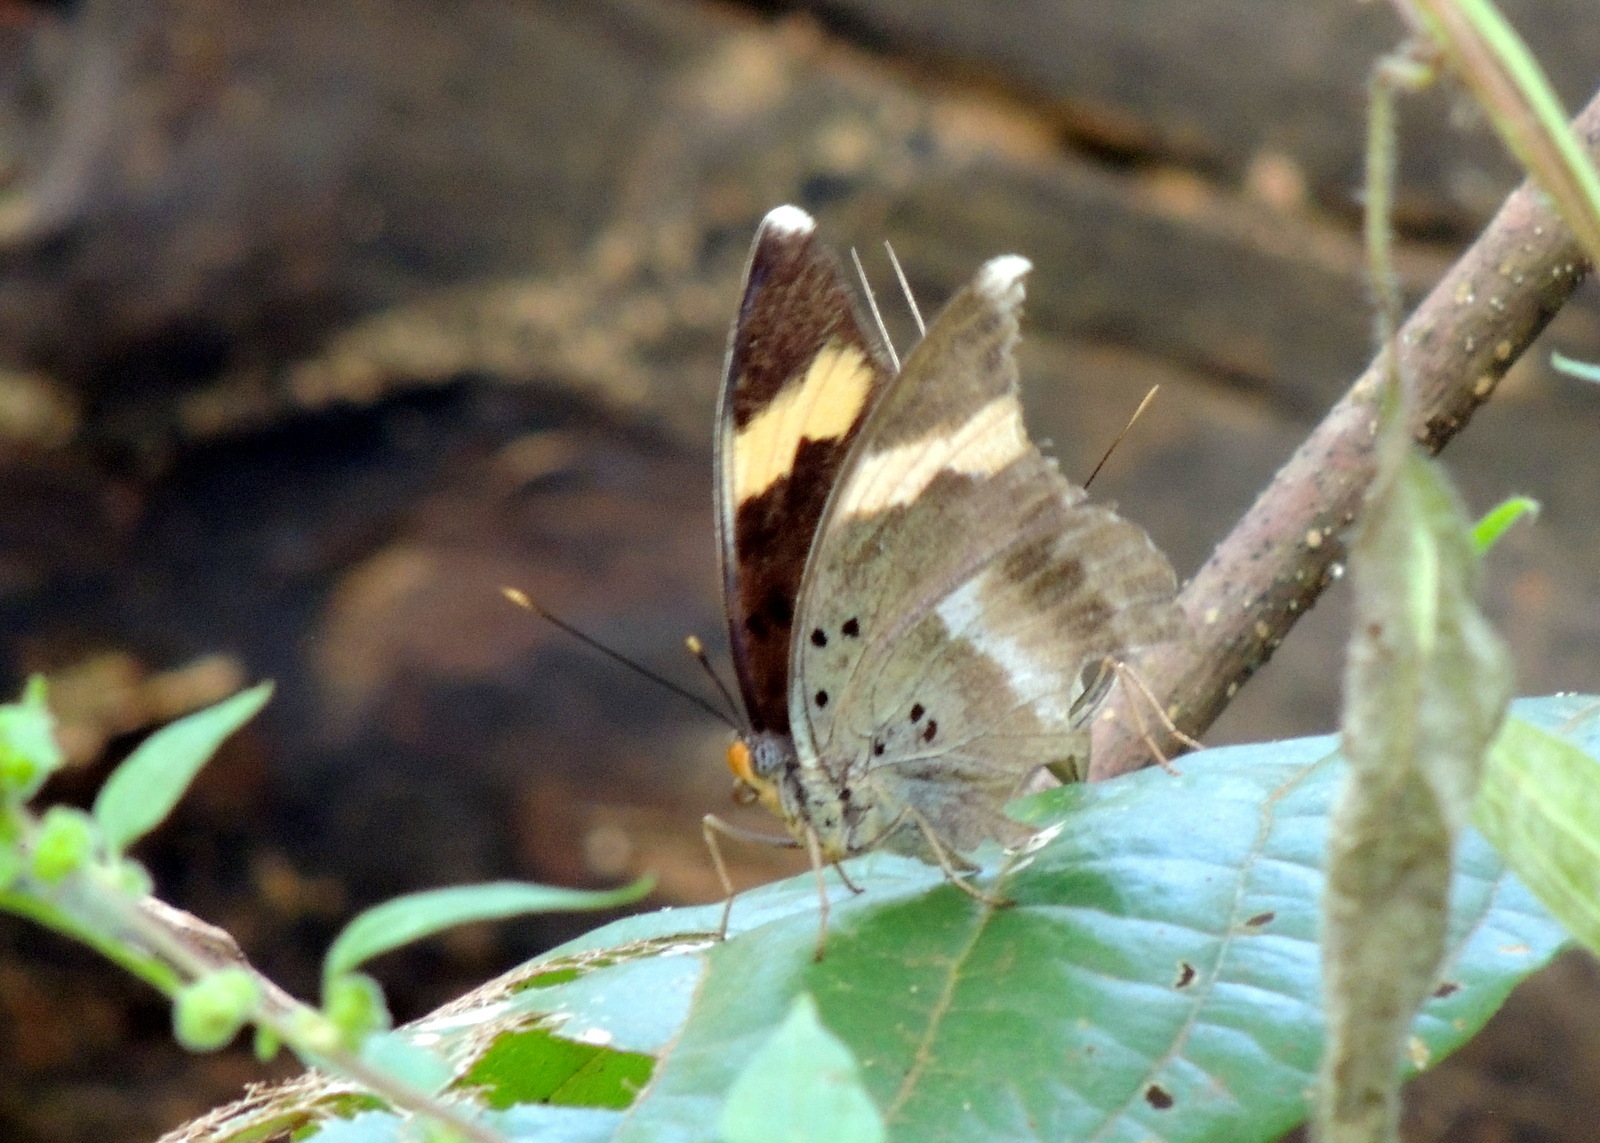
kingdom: Animalia
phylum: Arthropoda
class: Insecta
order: Lepidoptera
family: Nymphalidae
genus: Euphaedra
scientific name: Euphaedra medon
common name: Widespread forester
